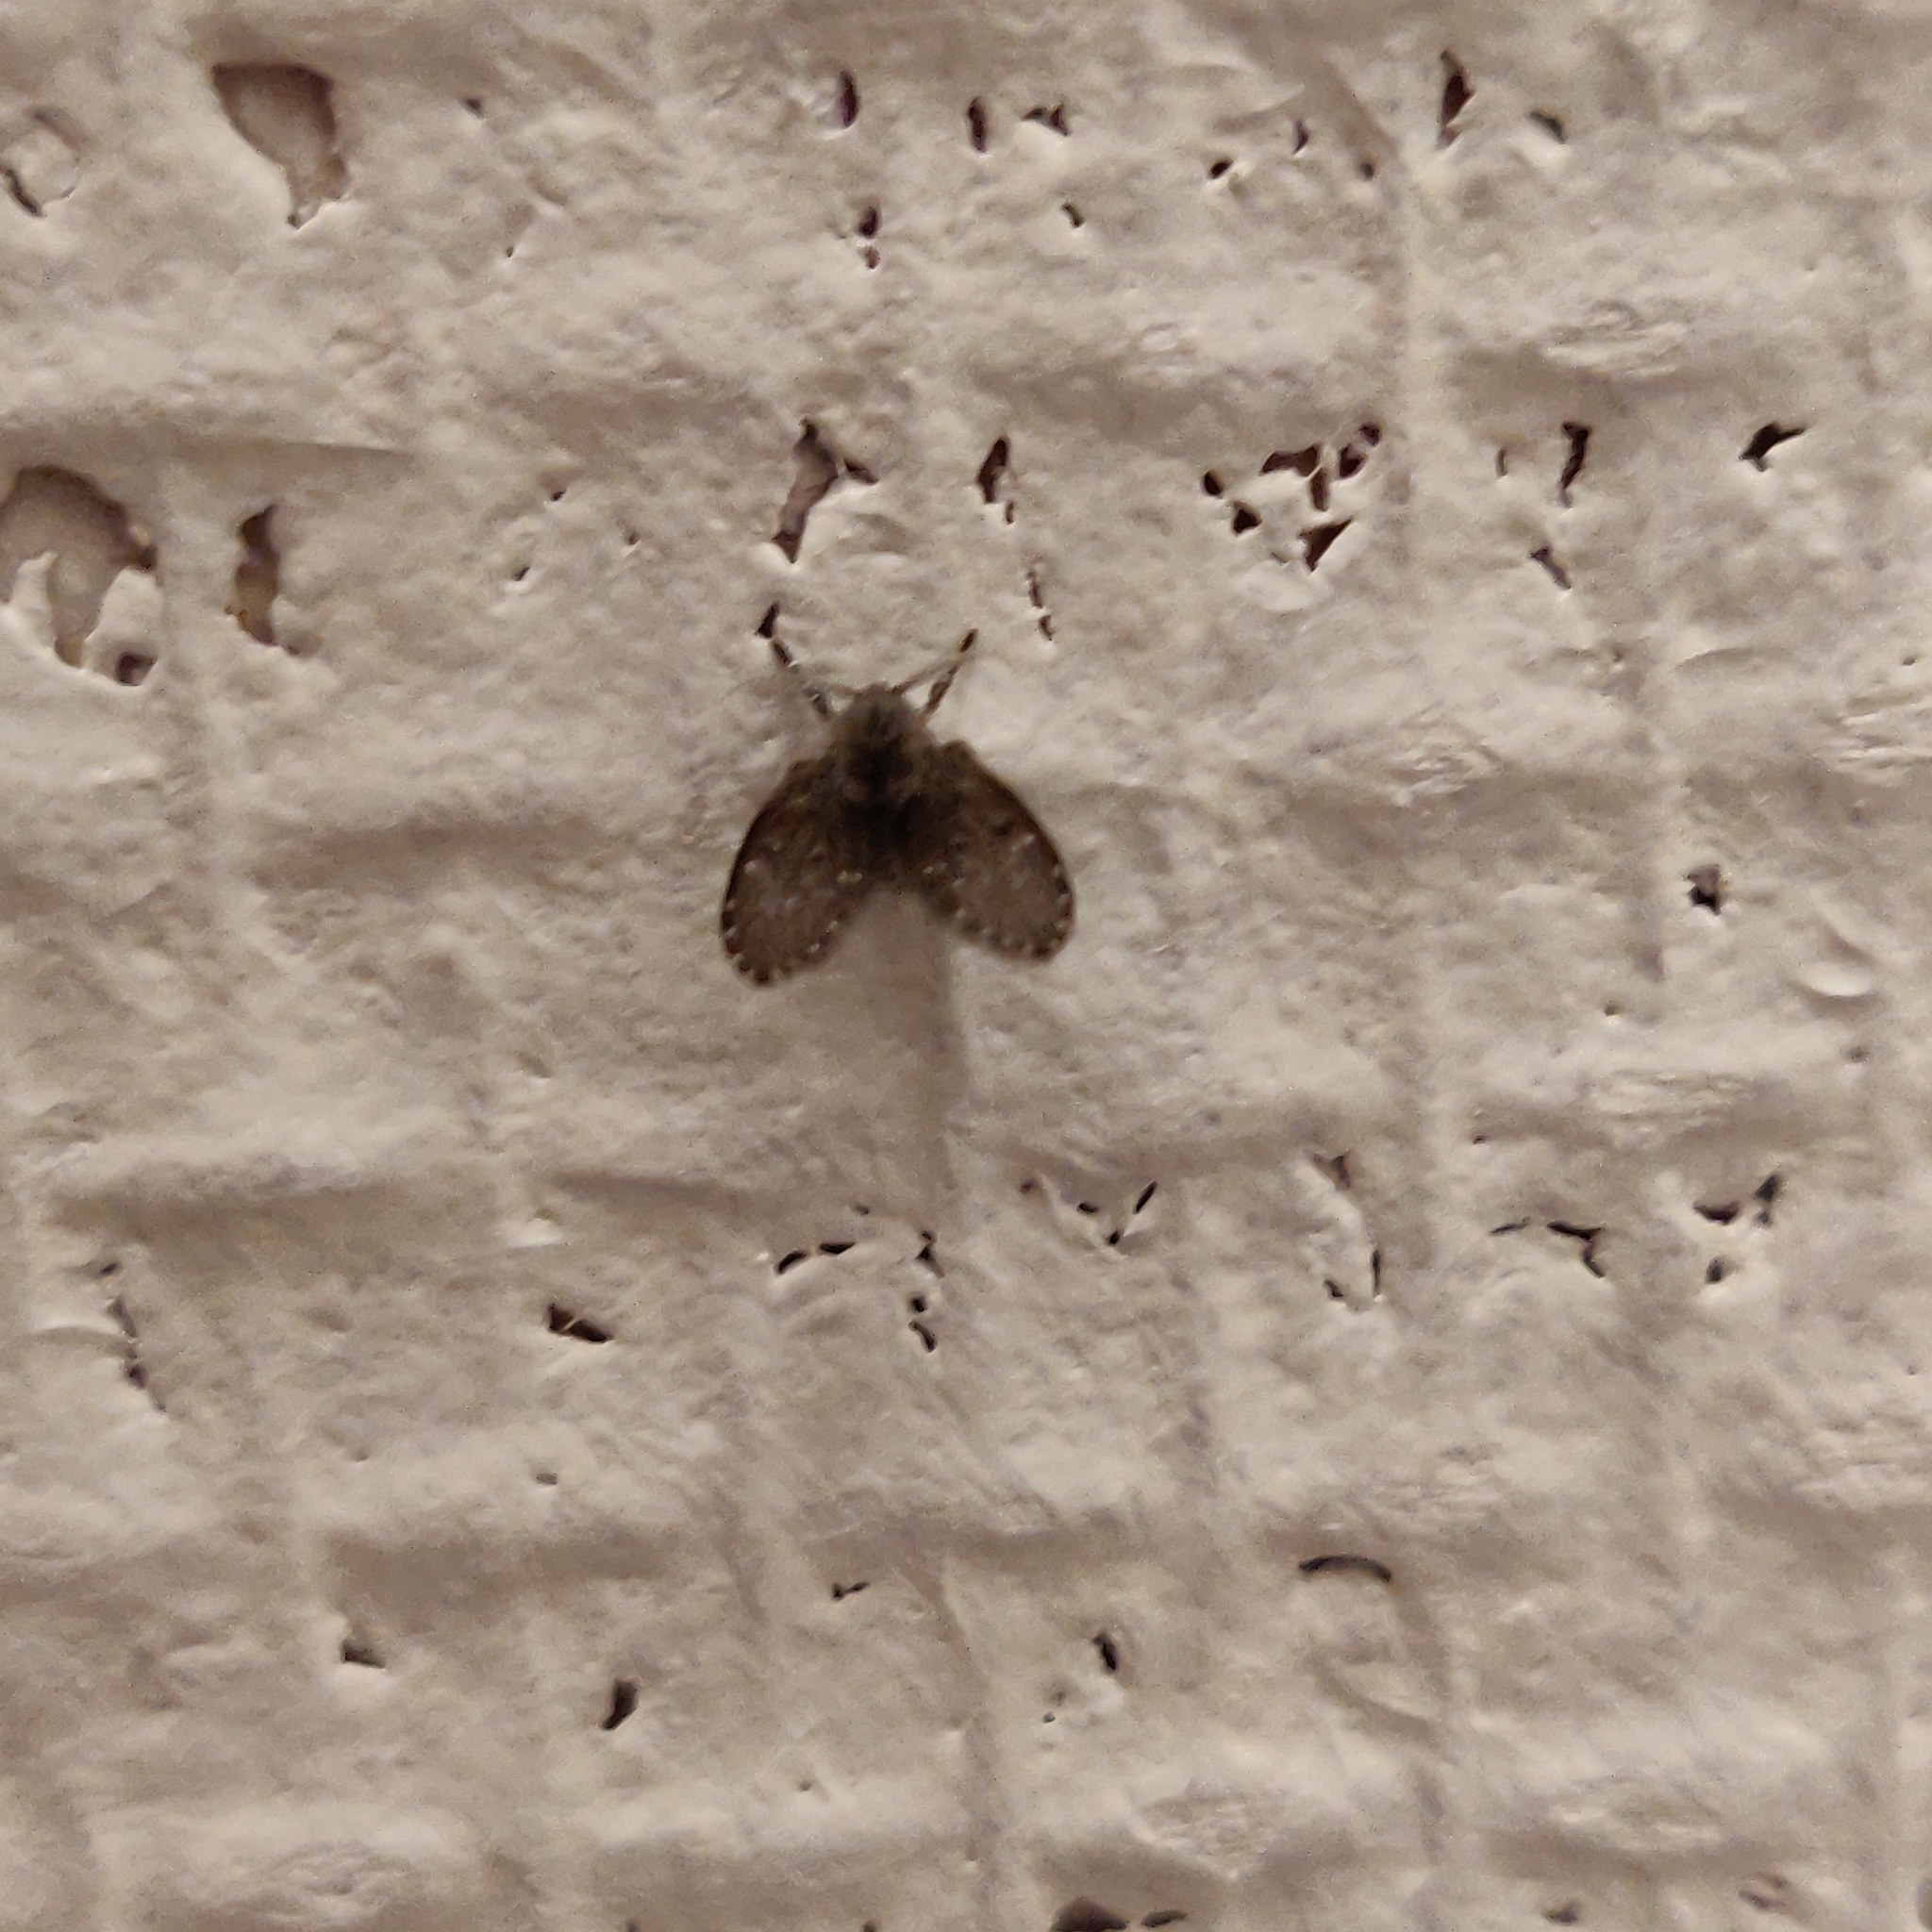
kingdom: Animalia
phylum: Arthropoda
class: Insecta
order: Diptera
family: Psychodidae
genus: Clogmia
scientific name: Clogmia albipunctatus
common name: White-spotted moth fly
